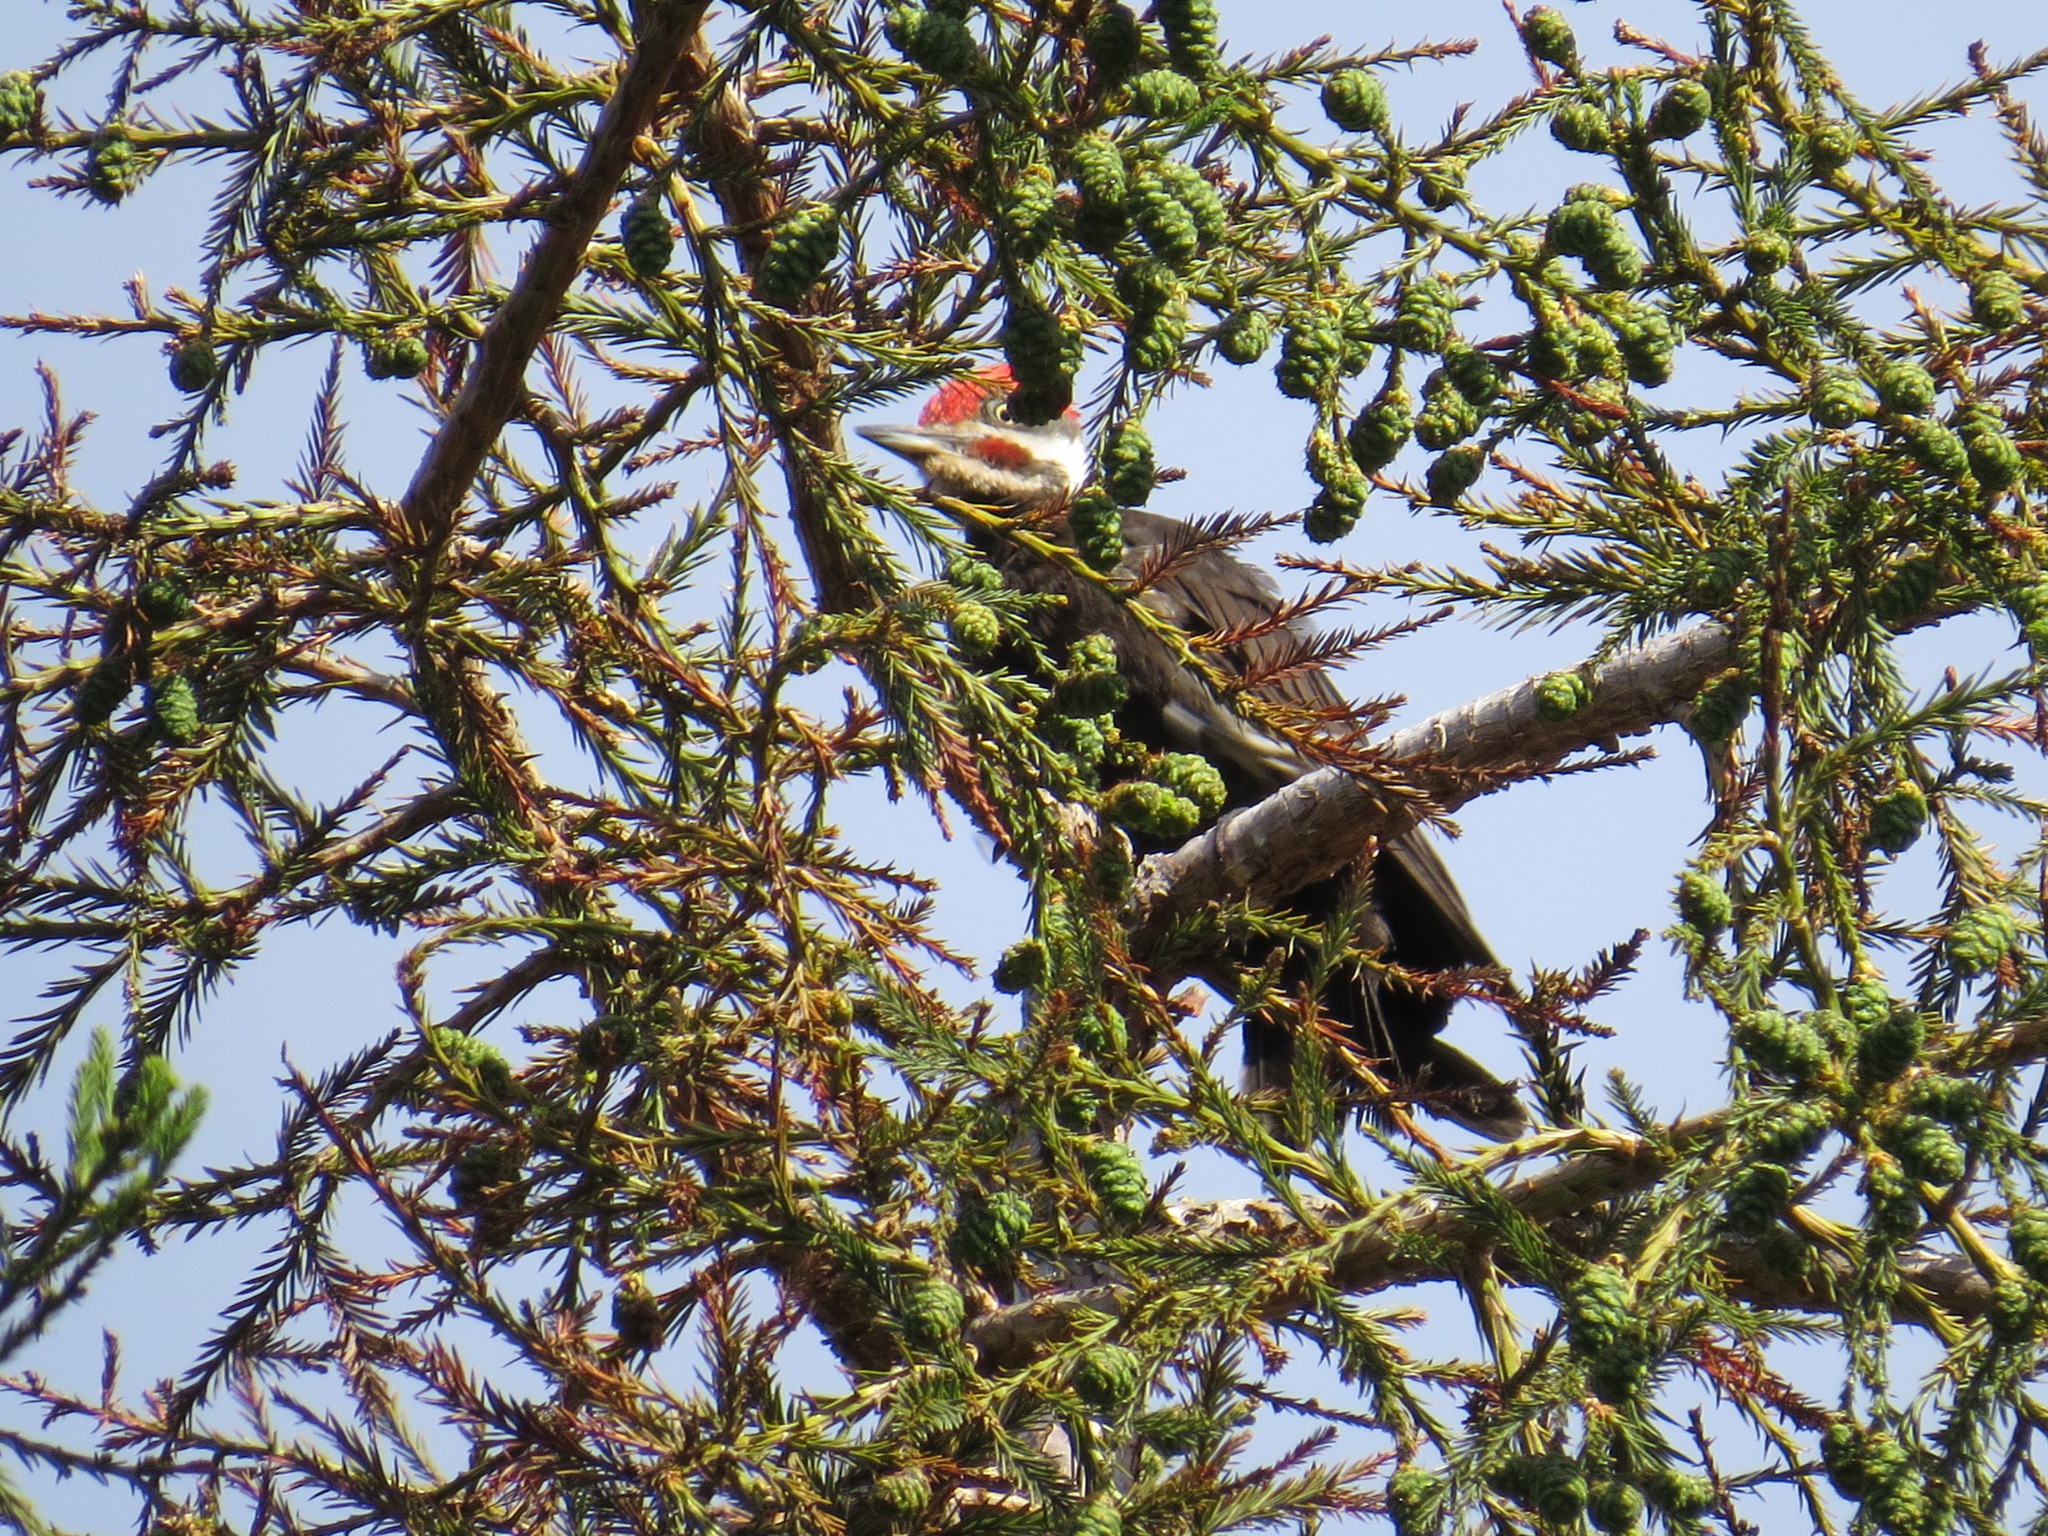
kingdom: Animalia
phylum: Chordata
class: Aves
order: Piciformes
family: Picidae
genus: Dryocopus
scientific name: Dryocopus pileatus
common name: Pileated woodpecker
